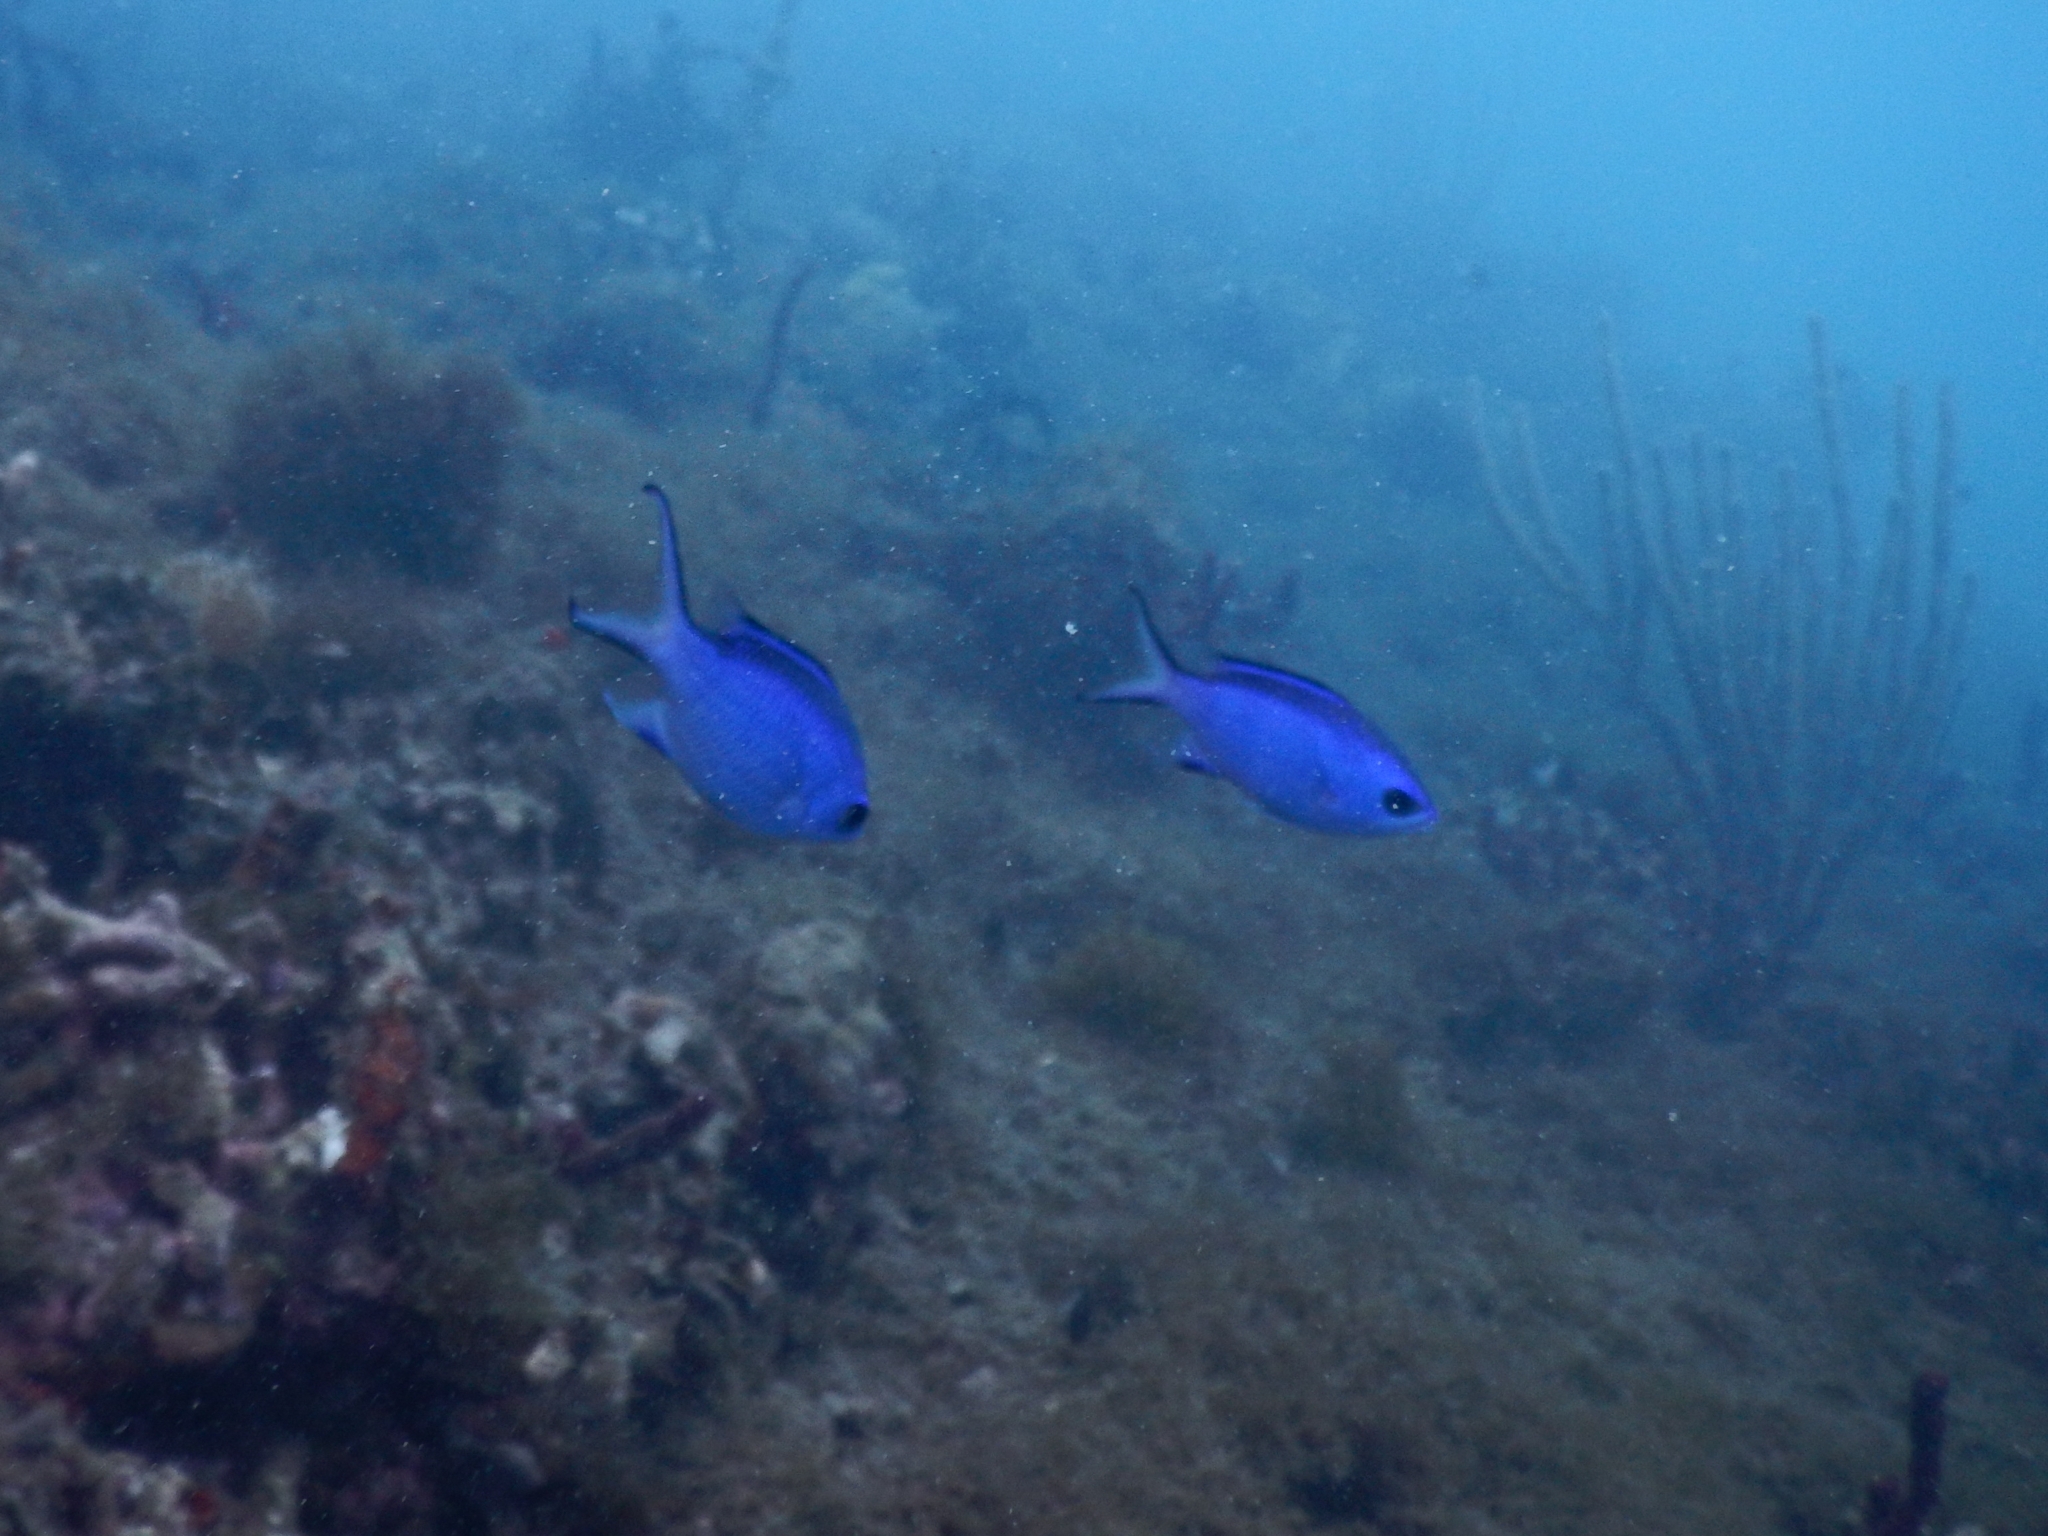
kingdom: Animalia
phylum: Chordata
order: Perciformes
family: Pomacentridae
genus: Chromis
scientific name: Chromis cyanea
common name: Blue chromis
